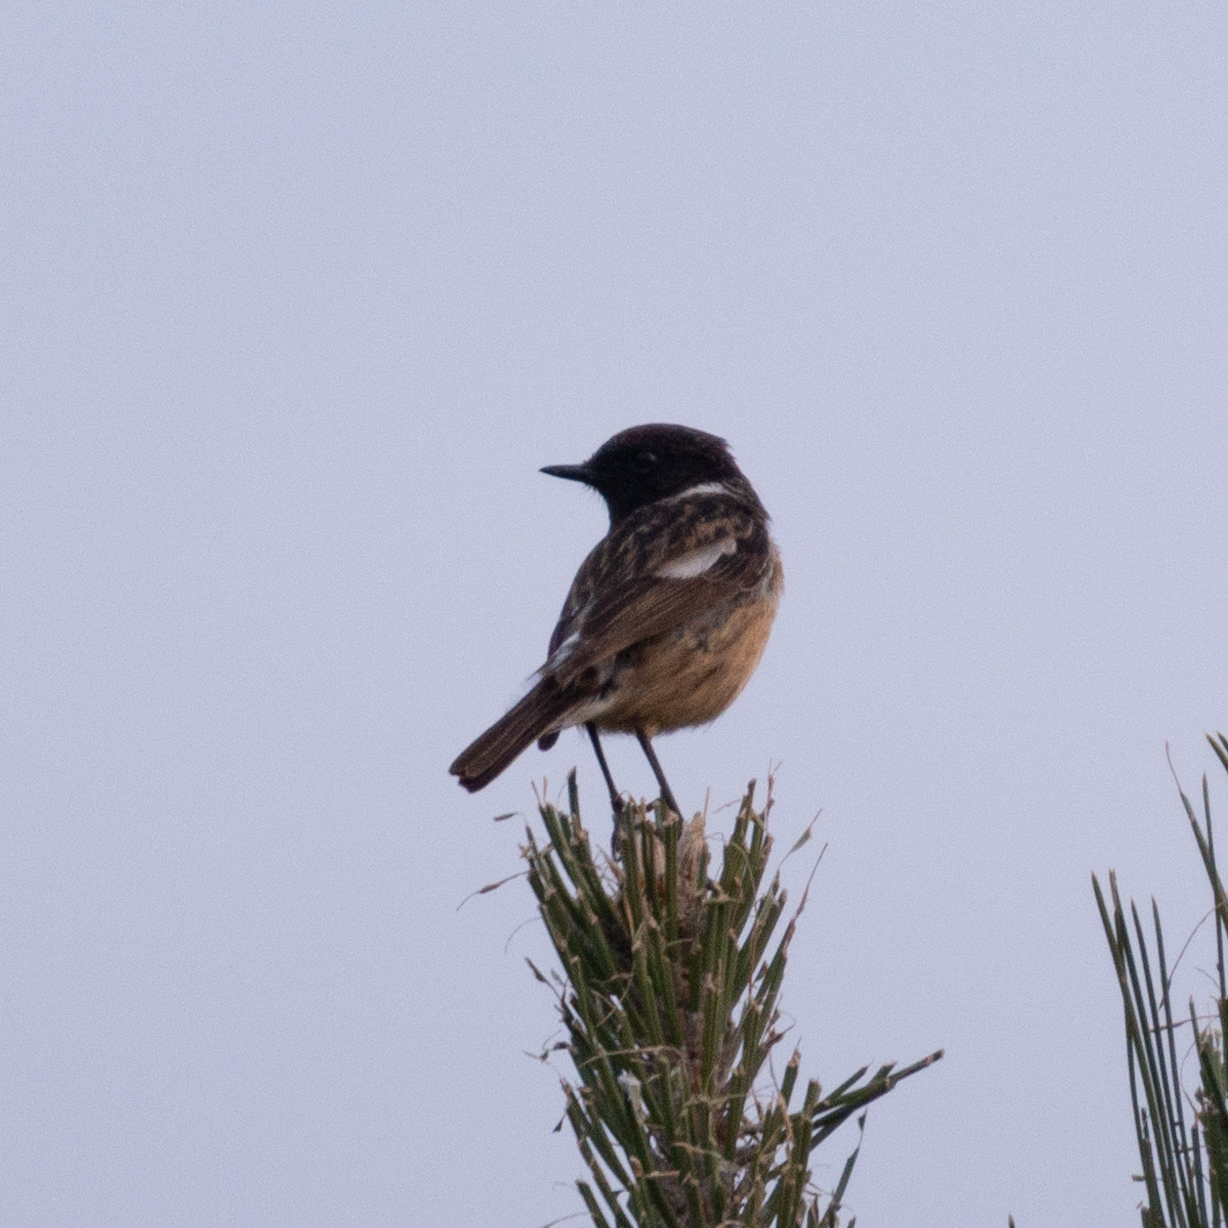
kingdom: Animalia
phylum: Chordata
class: Aves
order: Passeriformes
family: Muscicapidae
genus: Saxicola
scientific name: Saxicola rubicola
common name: European stonechat
